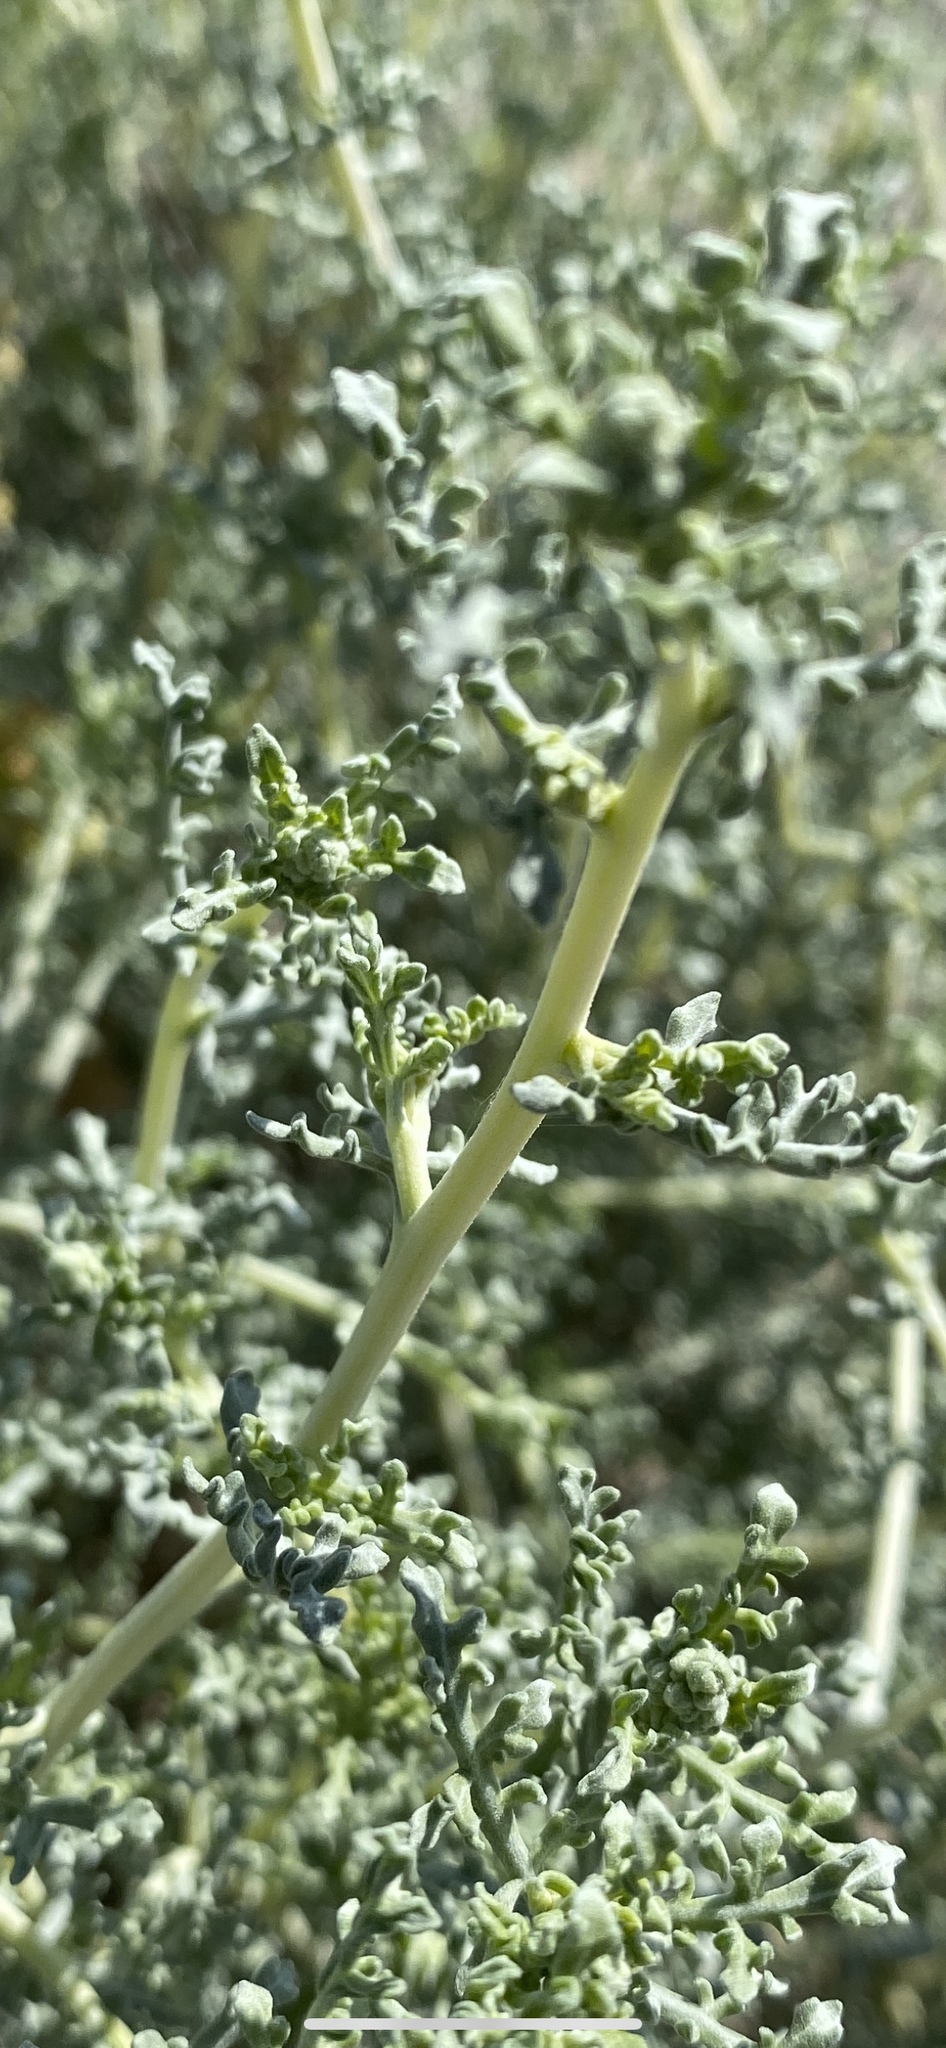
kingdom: Plantae
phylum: Tracheophyta
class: Magnoliopsida
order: Asterales
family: Asteraceae
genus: Ambrosia
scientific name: Ambrosia dumosa
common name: Bur-sage
